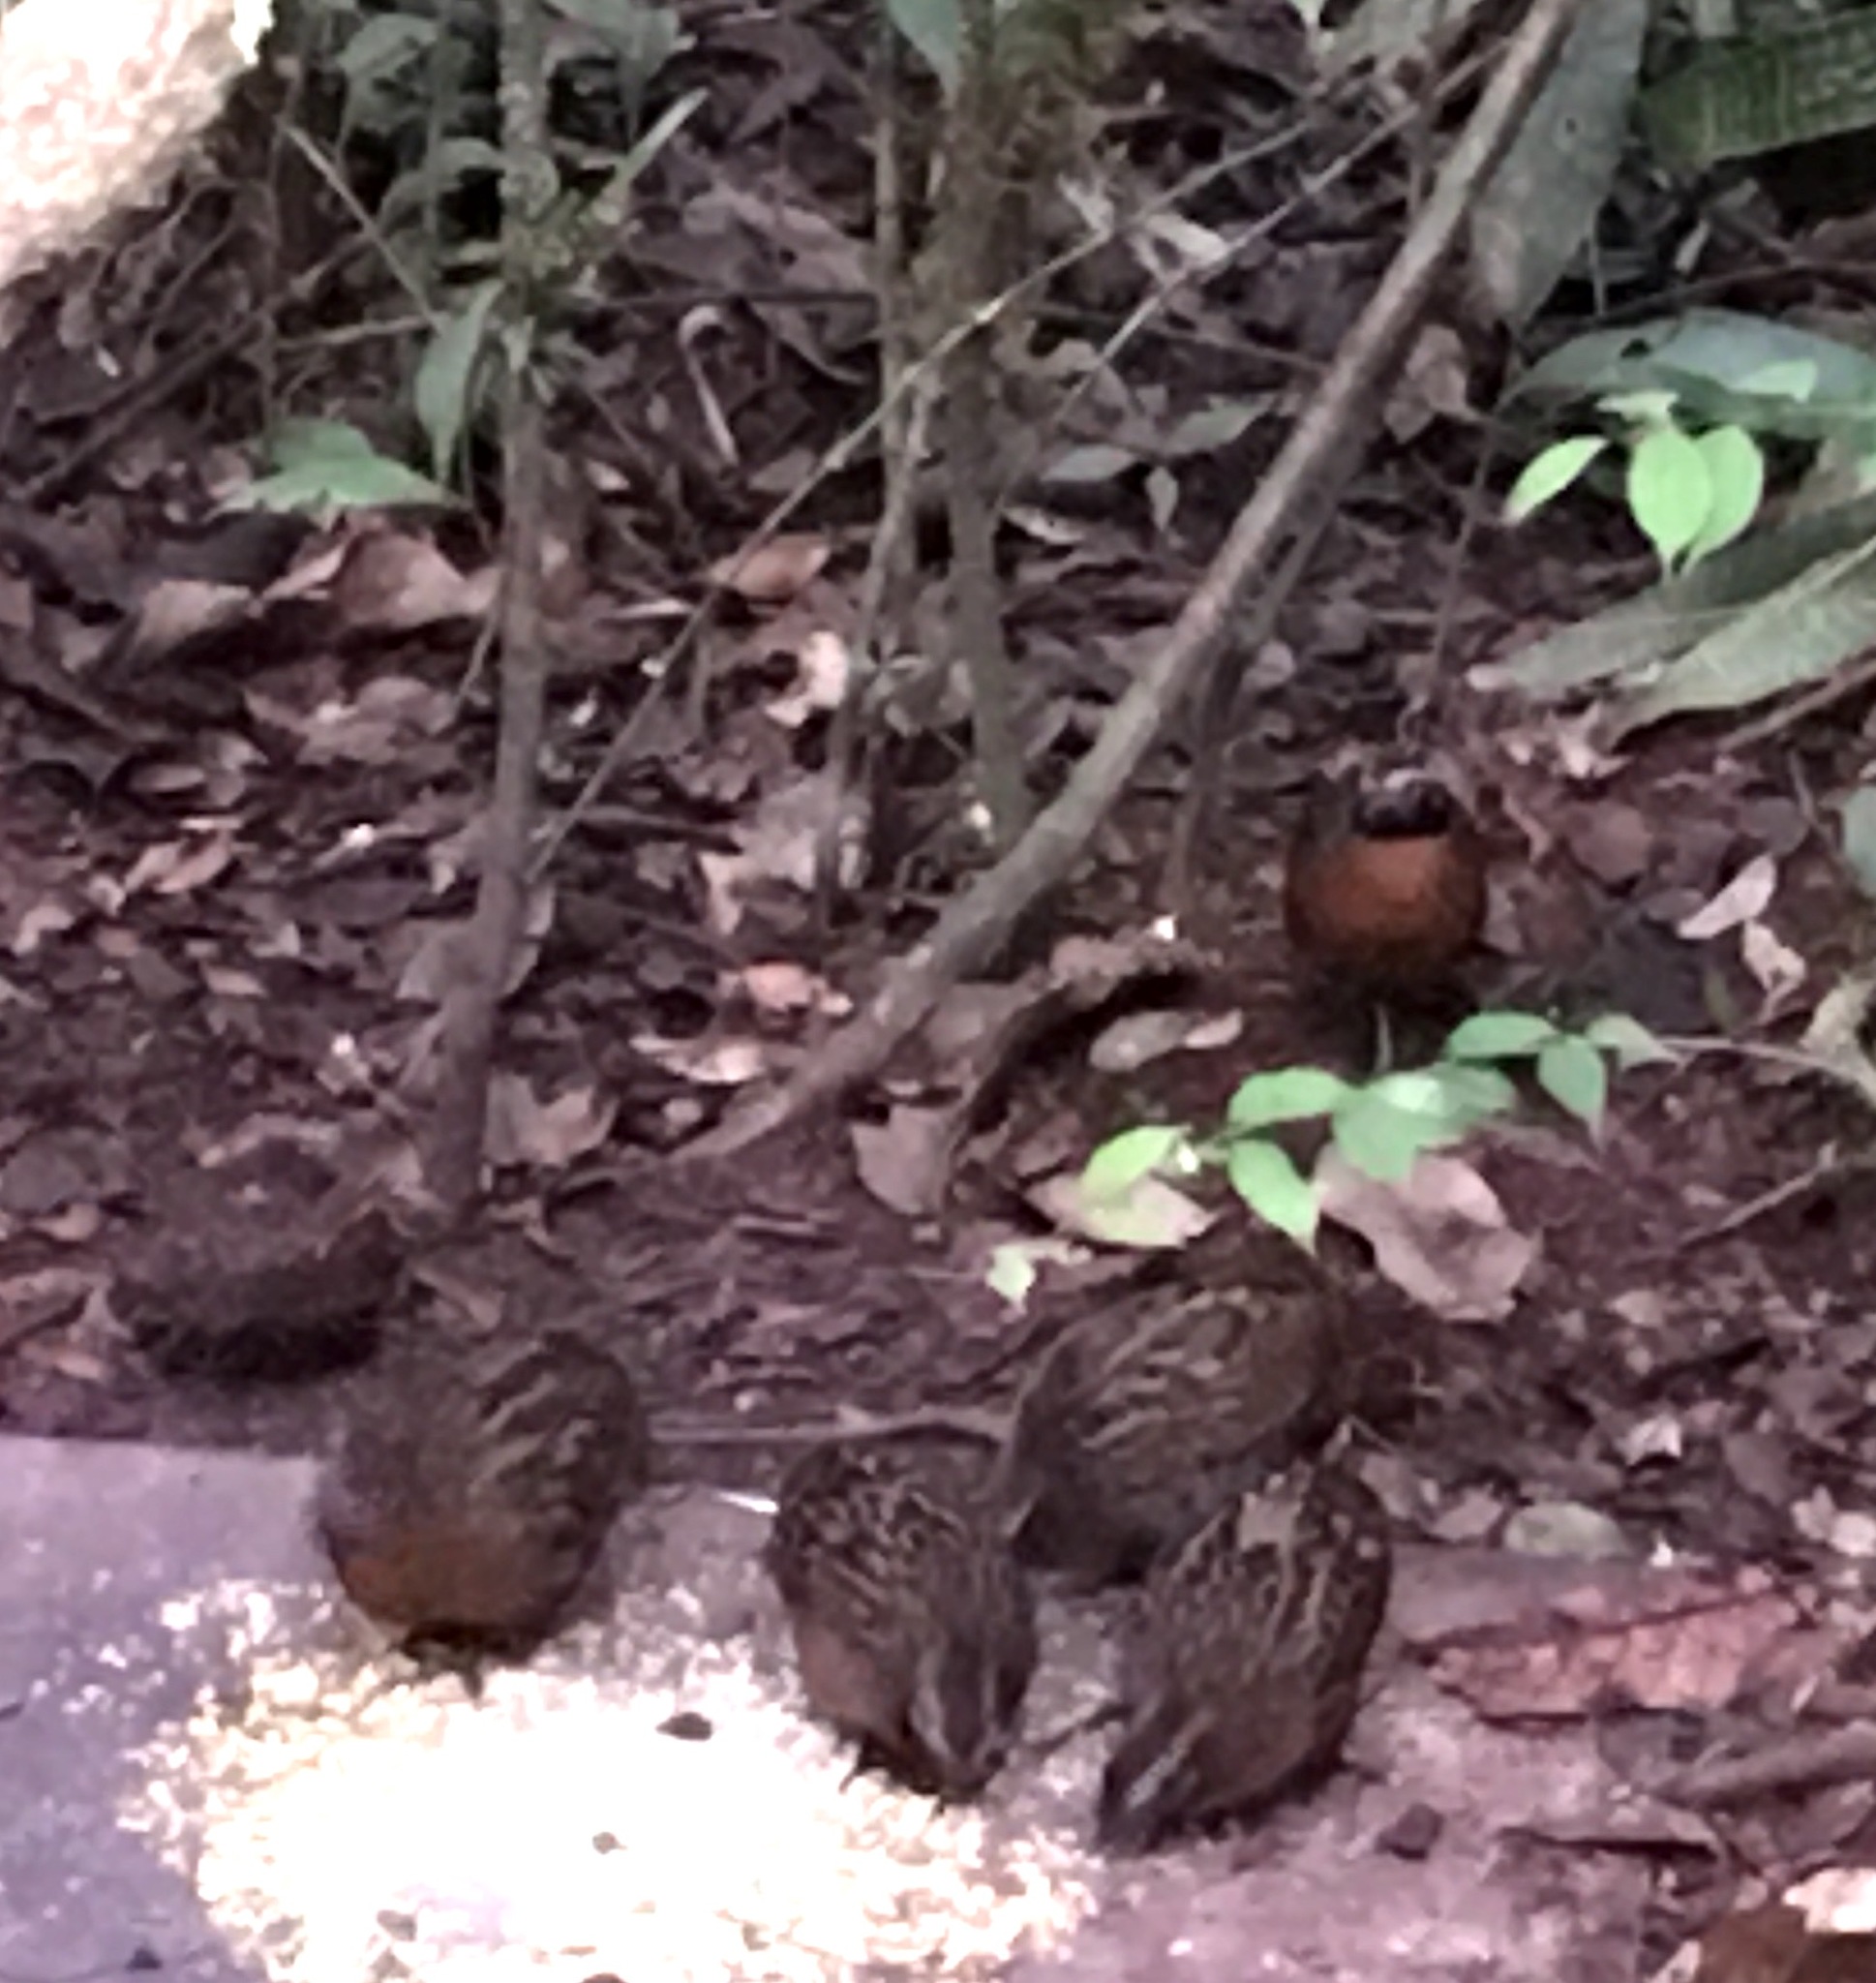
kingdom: Animalia
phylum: Chordata
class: Aves
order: Galliformes
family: Odontophoridae
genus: Odontophorus
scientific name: Odontophorus speciosus
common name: Rufous-breasted wood quail
